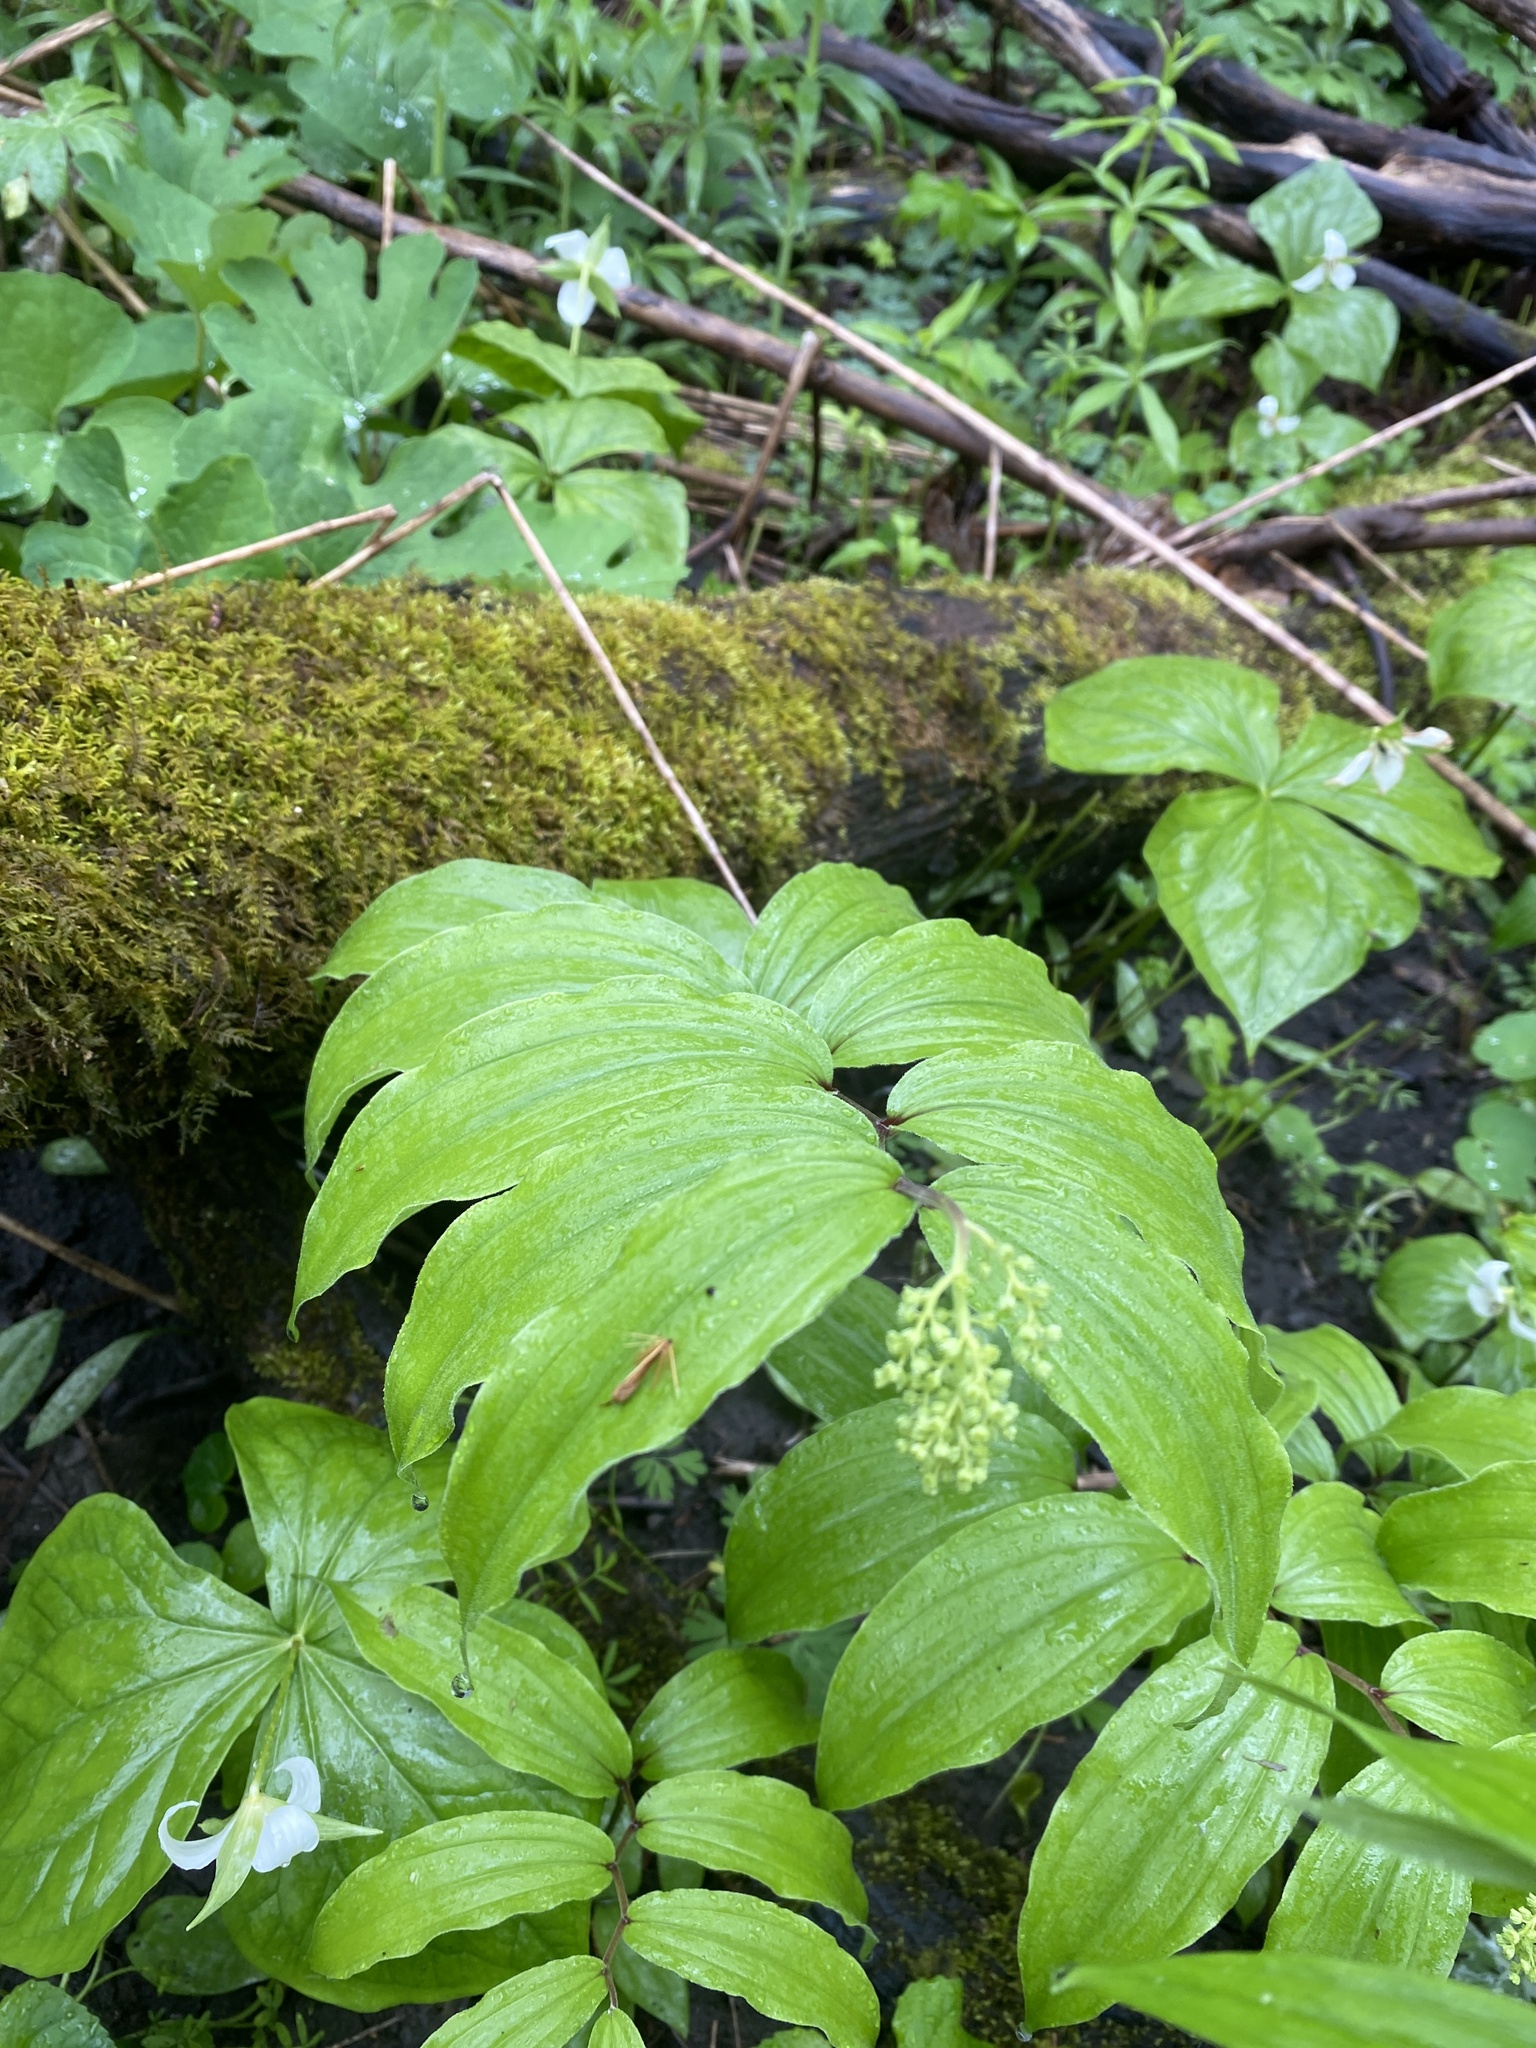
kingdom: Plantae
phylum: Tracheophyta
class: Liliopsida
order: Asparagales
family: Asparagaceae
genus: Maianthemum
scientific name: Maianthemum racemosum
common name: False spikenard
